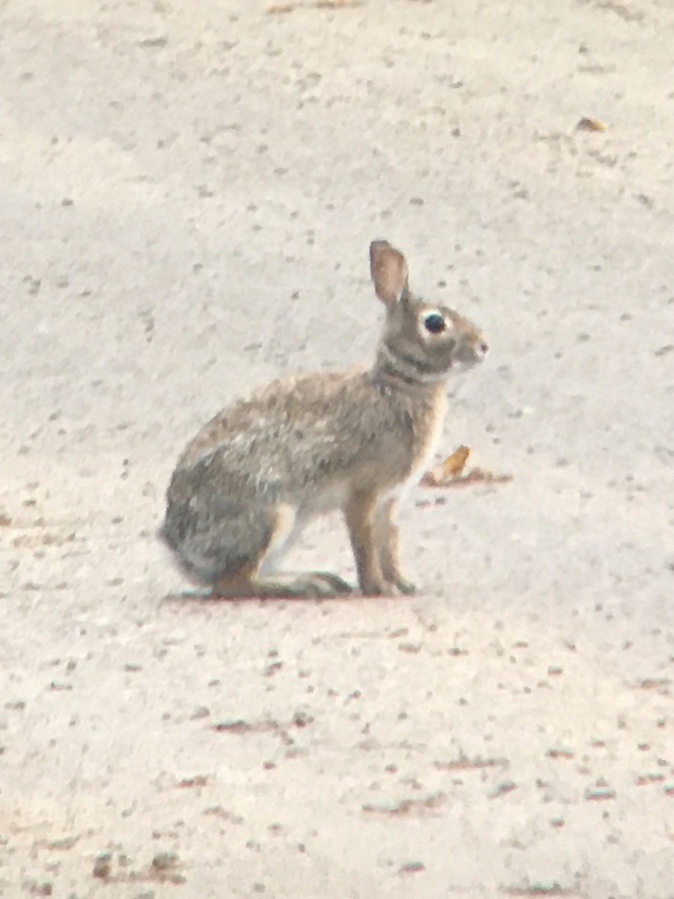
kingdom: Animalia
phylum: Chordata
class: Mammalia
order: Lagomorpha
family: Leporidae
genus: Sylvilagus
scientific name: Sylvilagus floridanus
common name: Eastern cottontail
